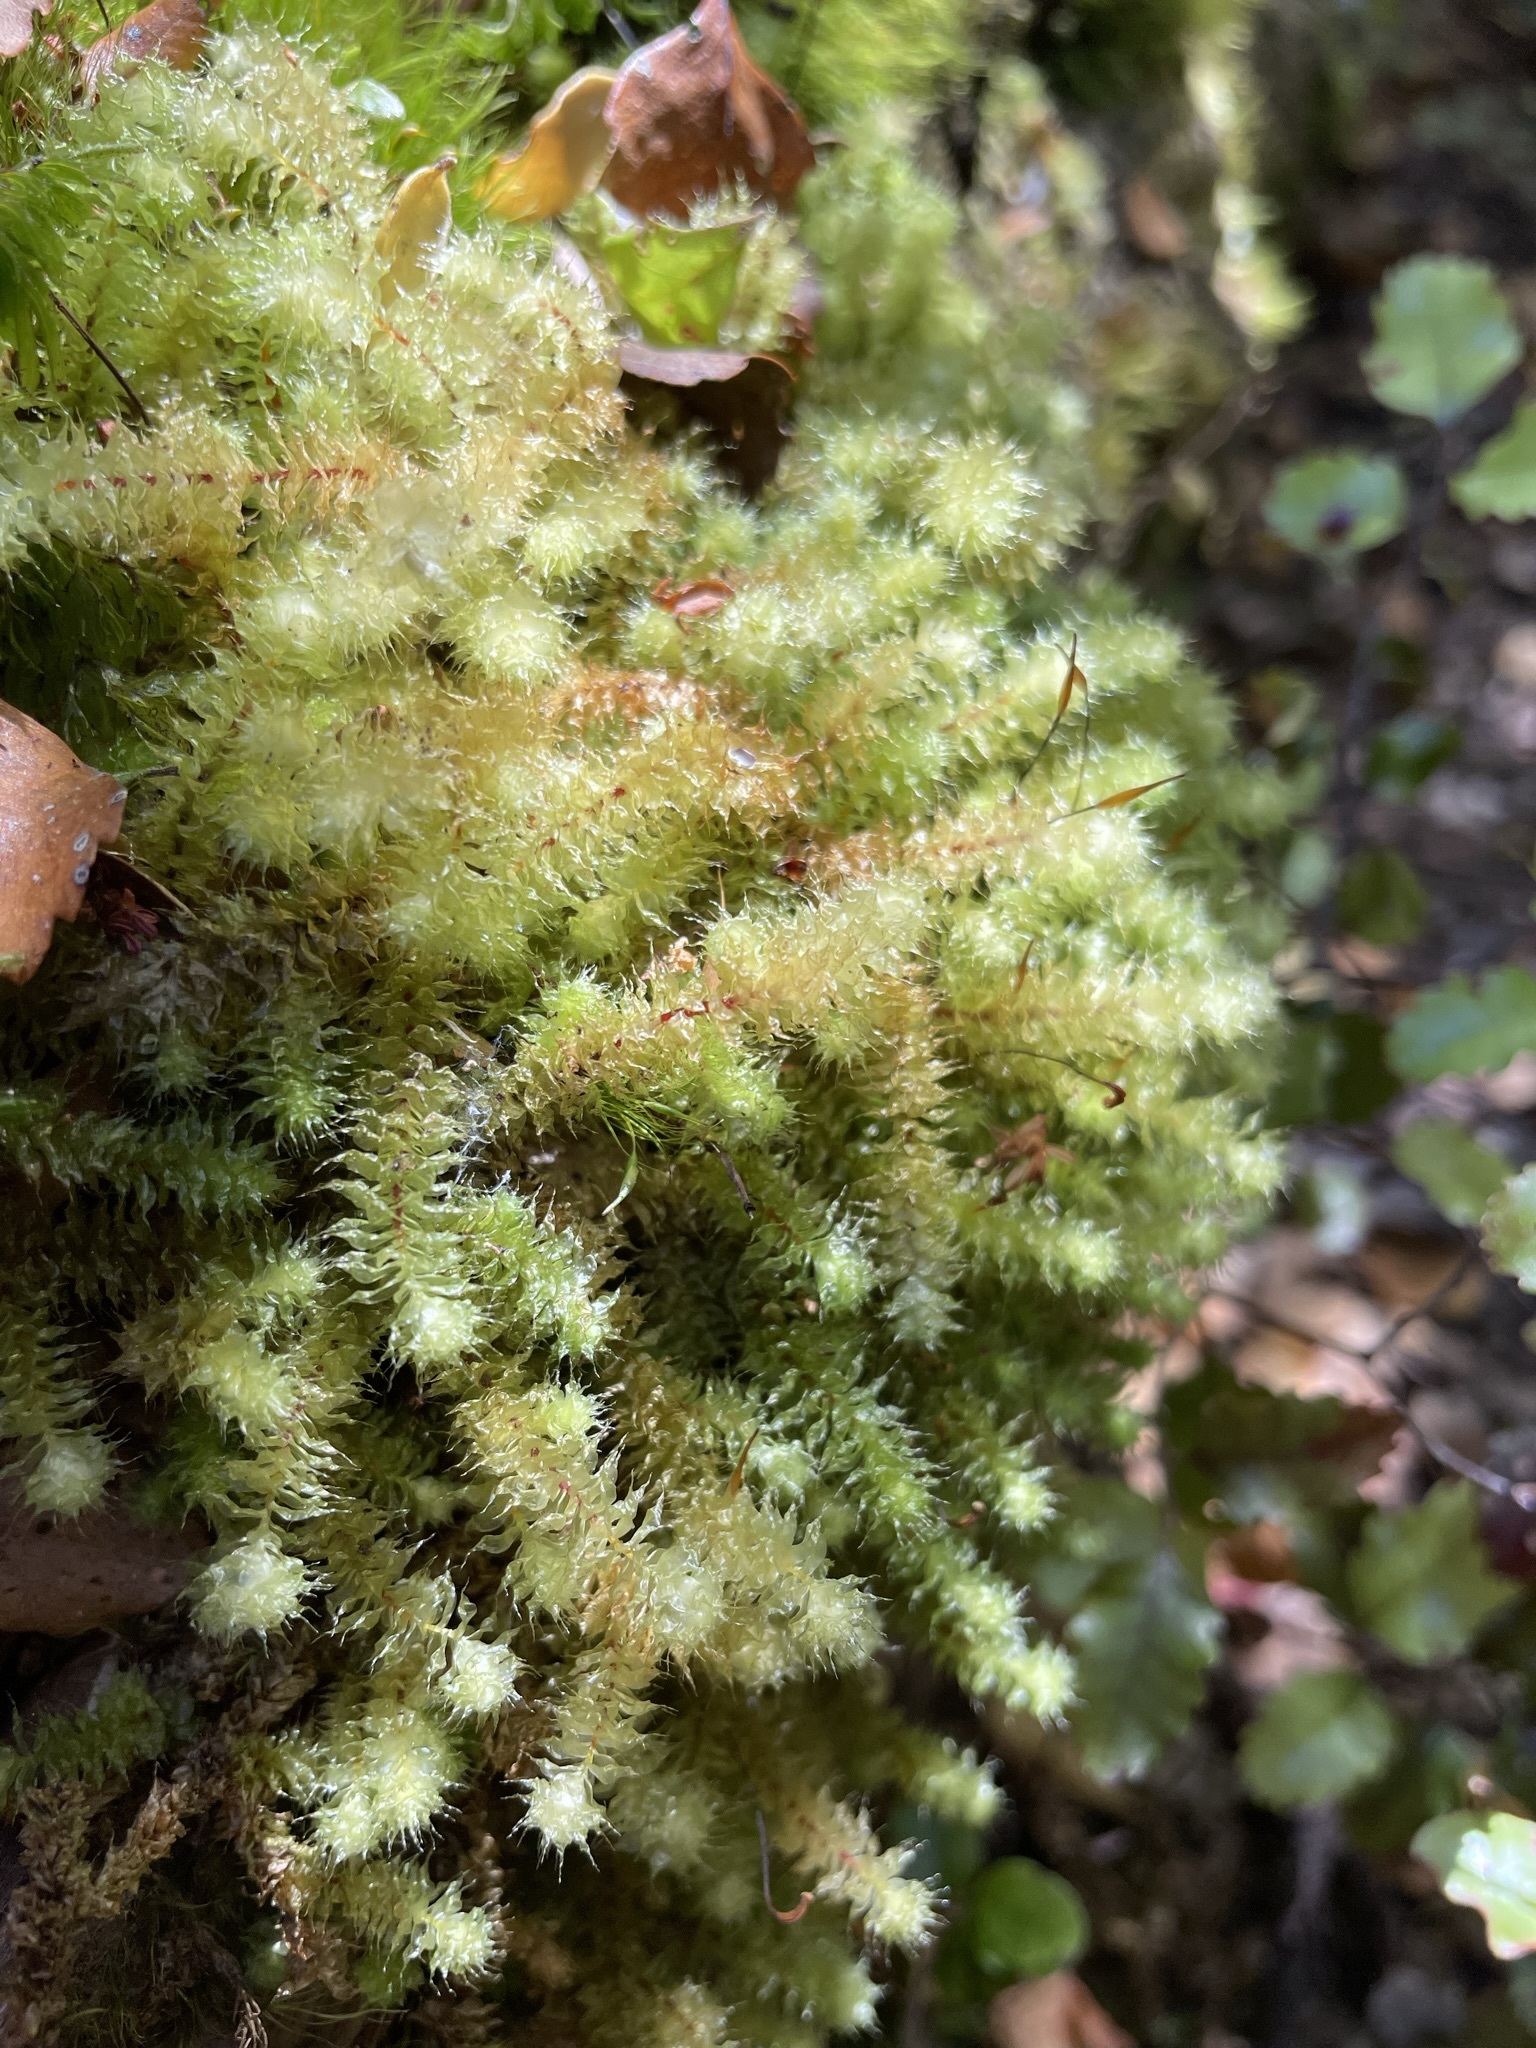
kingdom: Plantae
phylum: Bryophyta
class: Bryopsida
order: Ptychomniales
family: Ptychomniaceae
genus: Ptychomnion
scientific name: Ptychomnion aciculare
